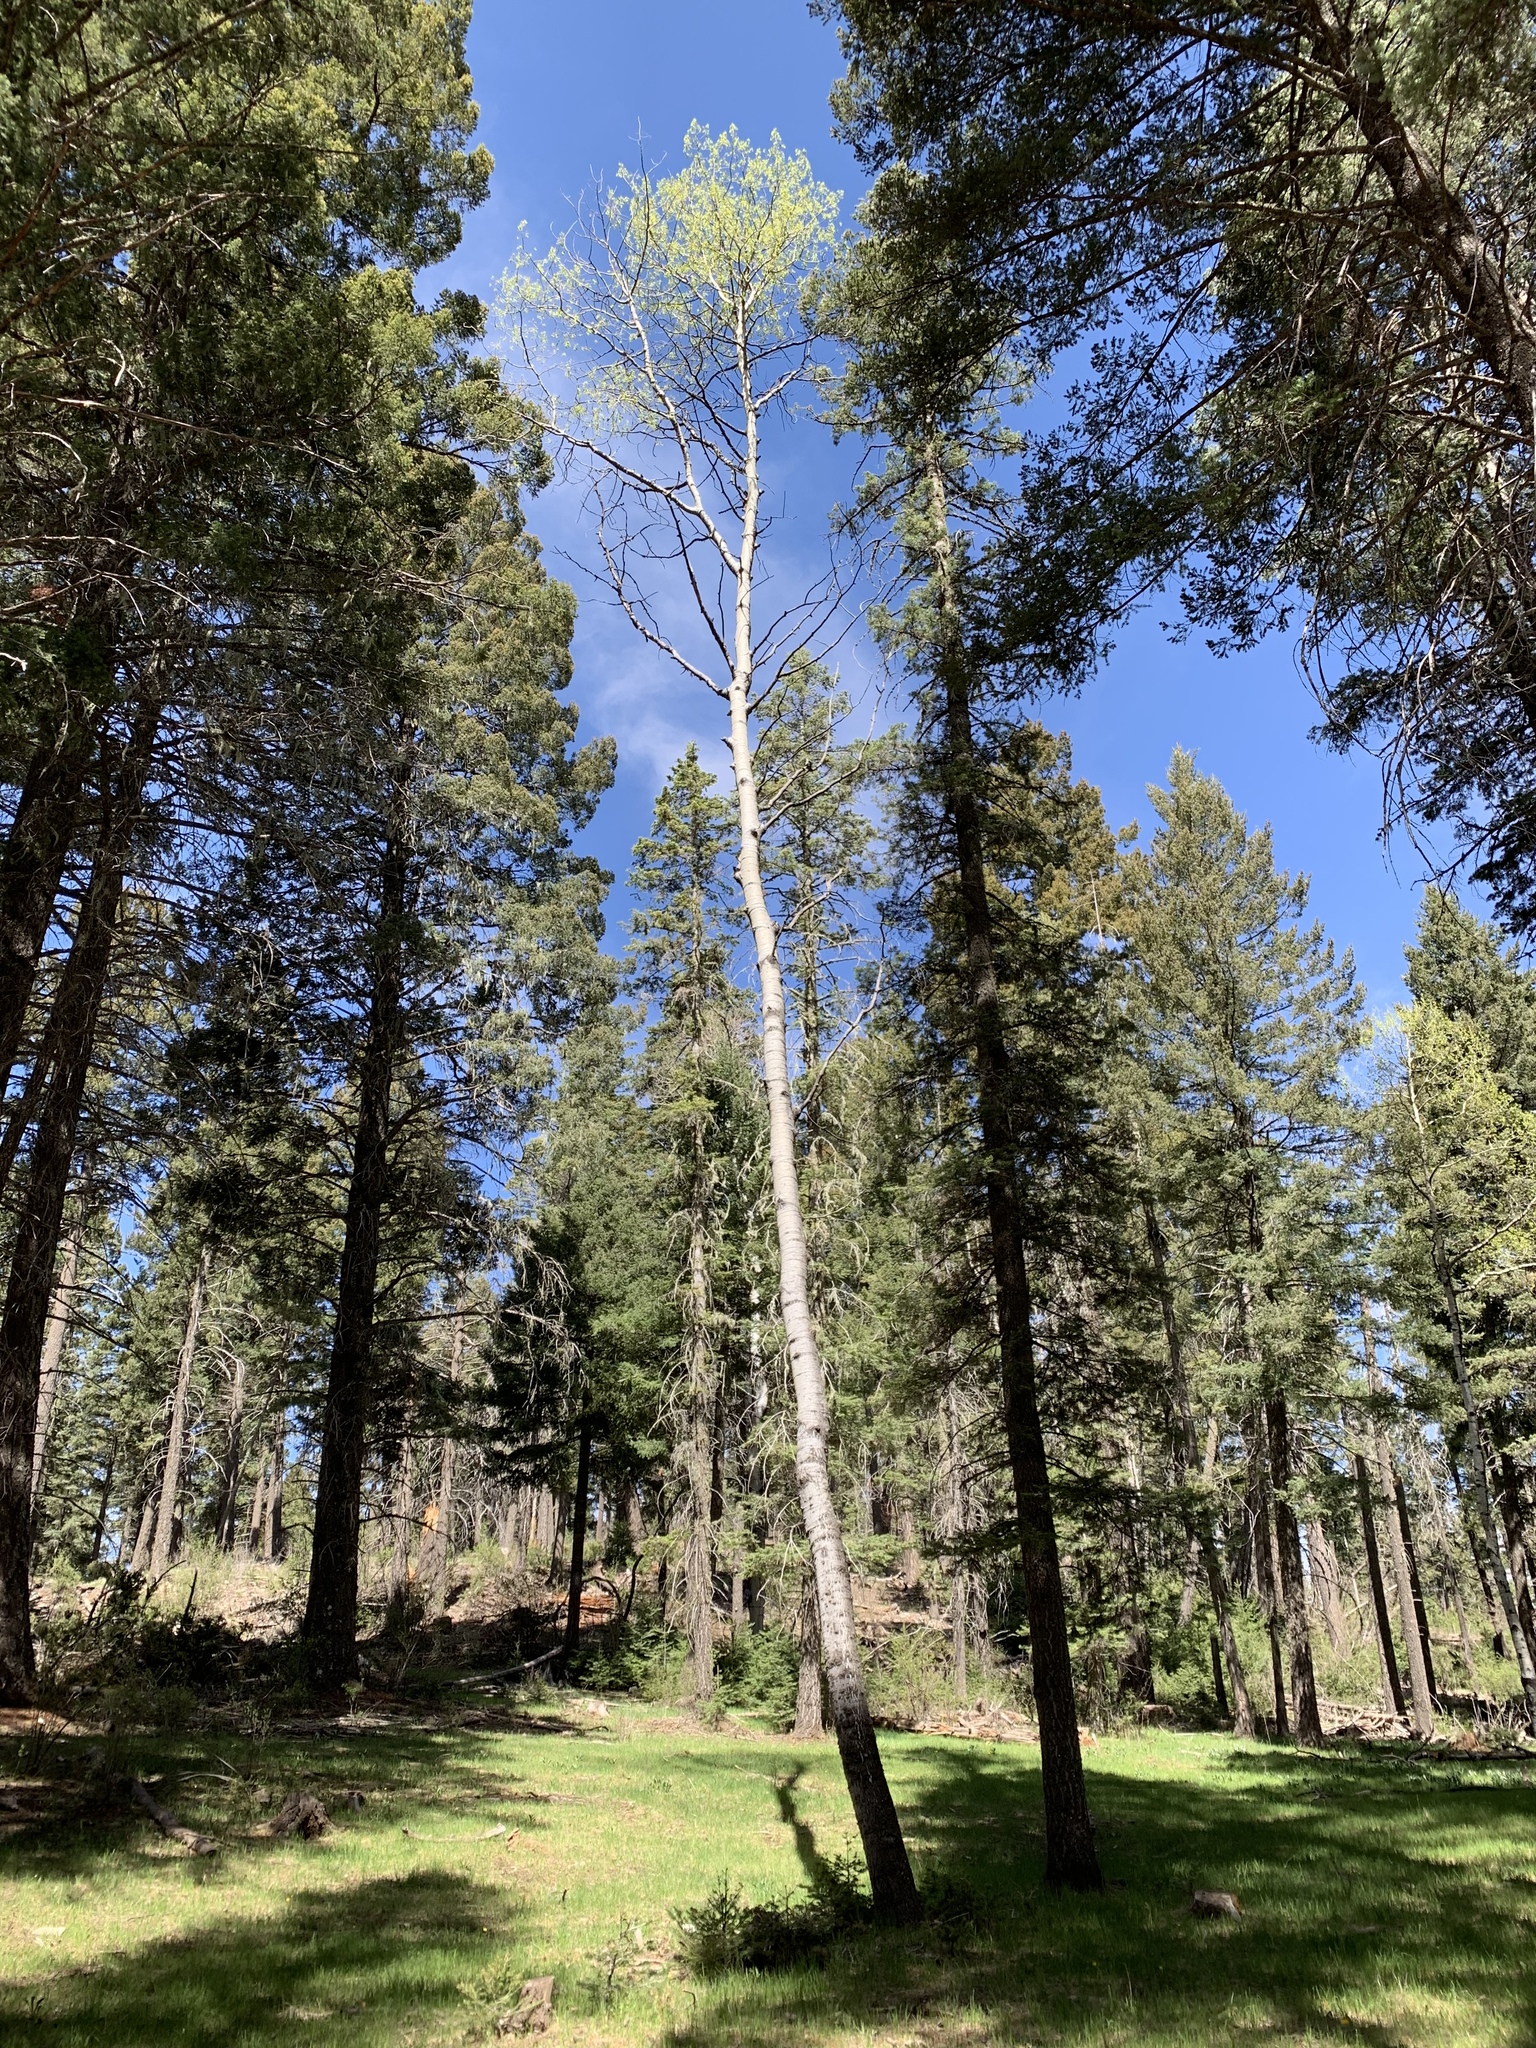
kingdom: Plantae
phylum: Tracheophyta
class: Magnoliopsida
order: Malpighiales
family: Salicaceae
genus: Populus
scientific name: Populus tremuloides
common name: Quaking aspen
